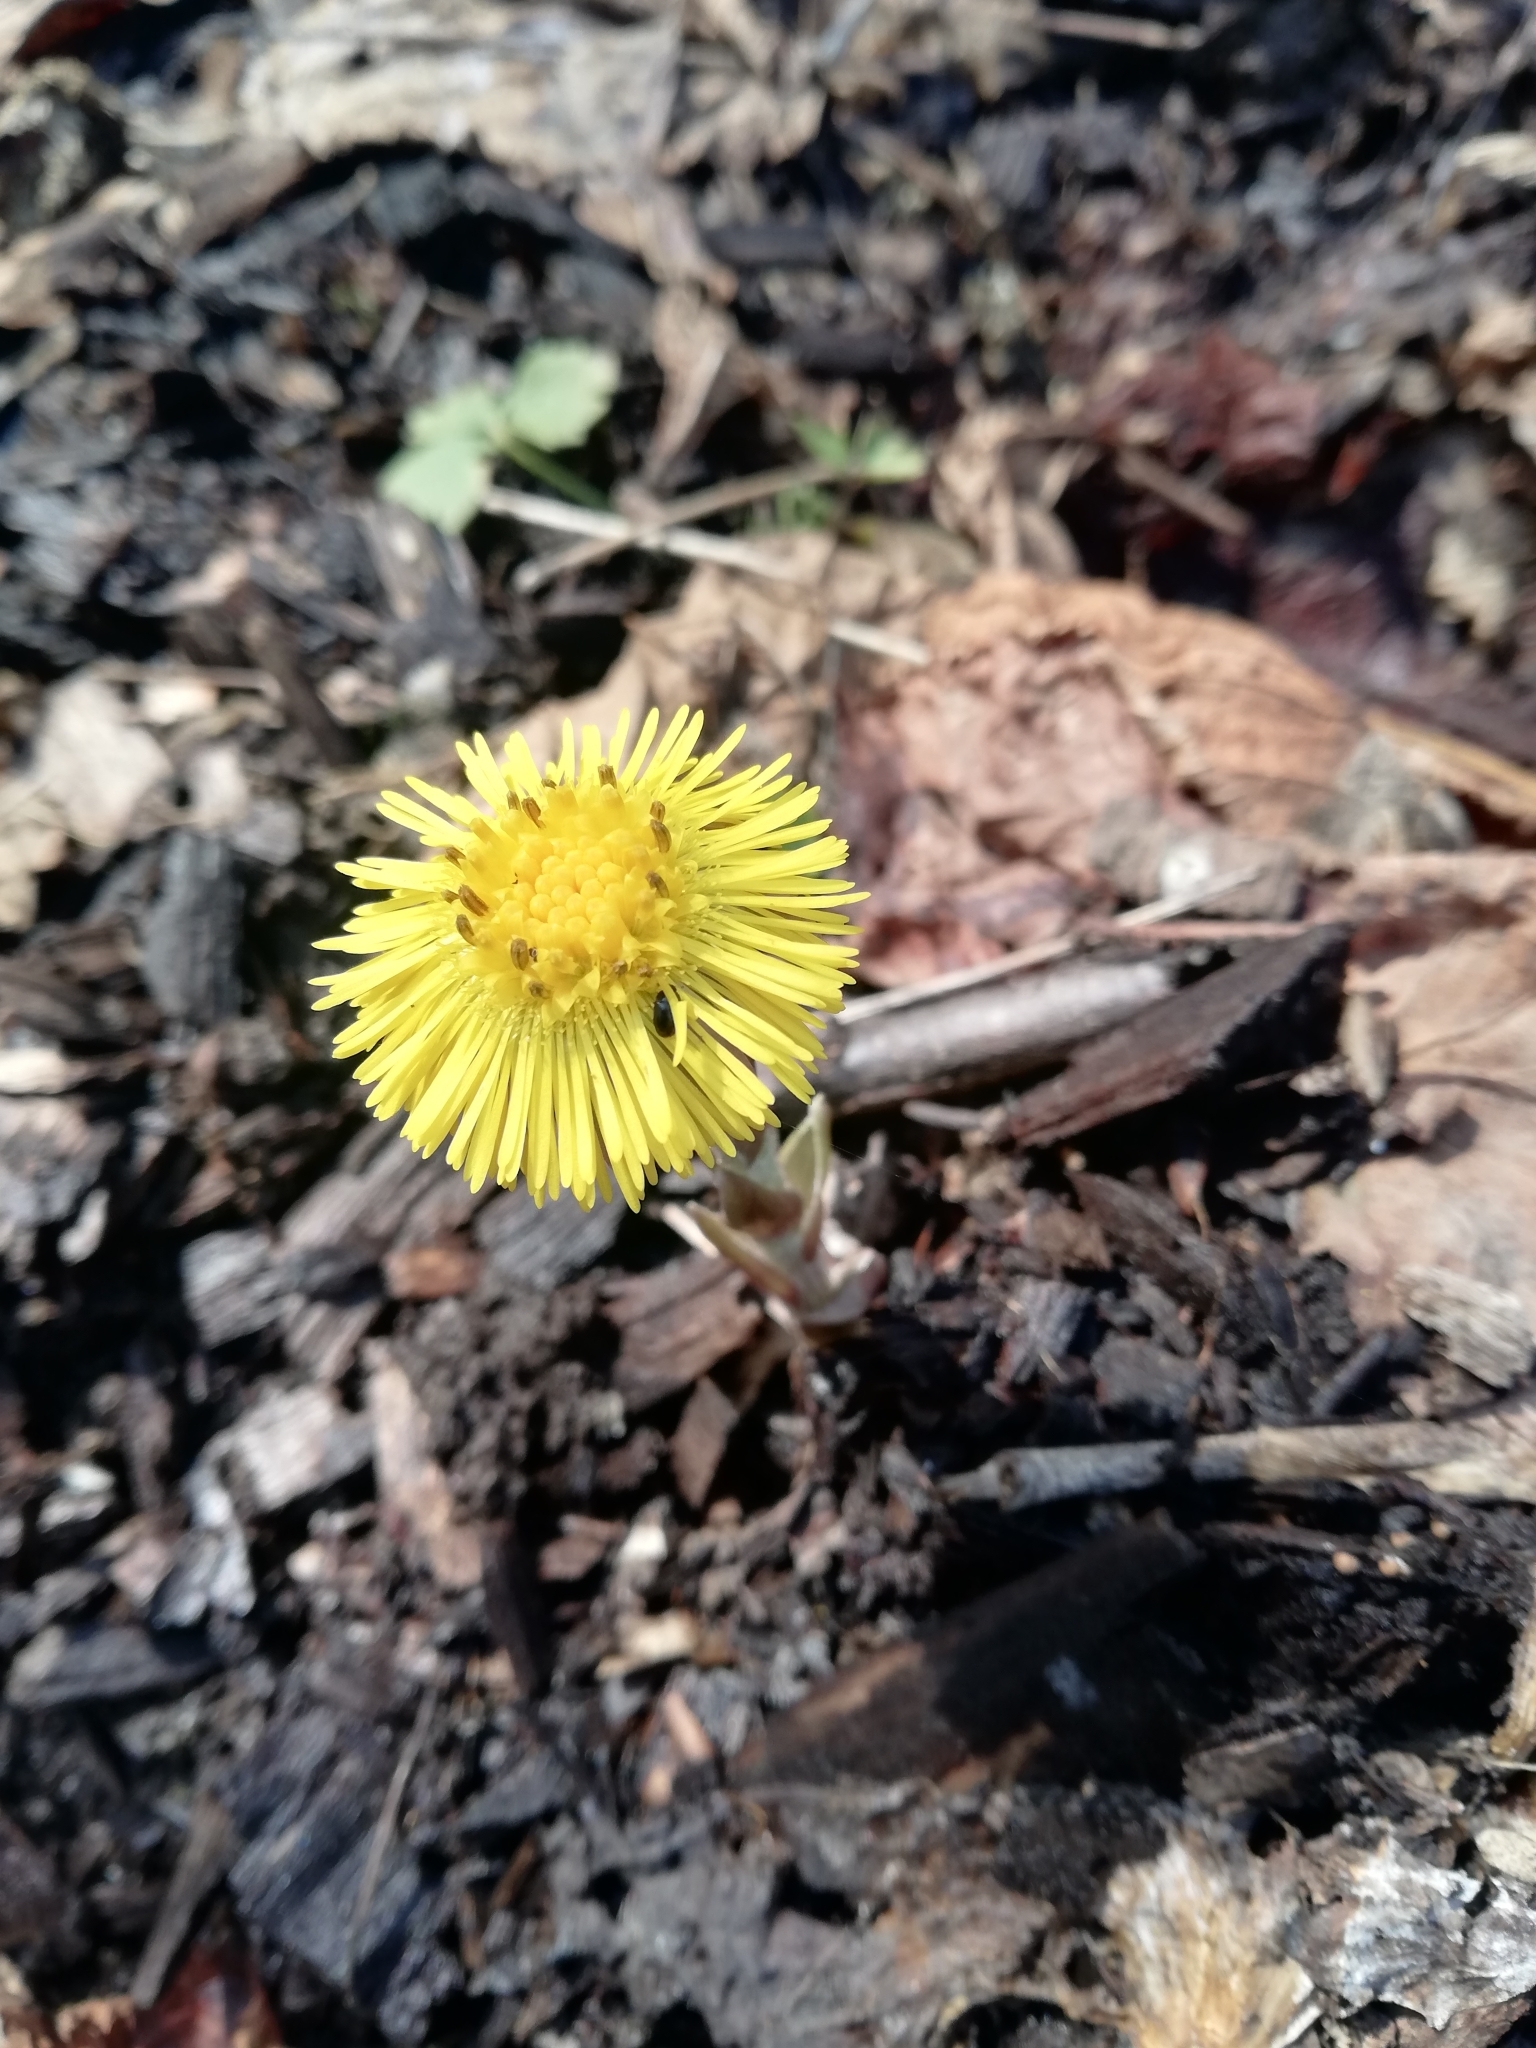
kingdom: Plantae
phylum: Tracheophyta
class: Magnoliopsida
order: Asterales
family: Asteraceae
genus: Tussilago
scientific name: Tussilago farfara
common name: Coltsfoot
